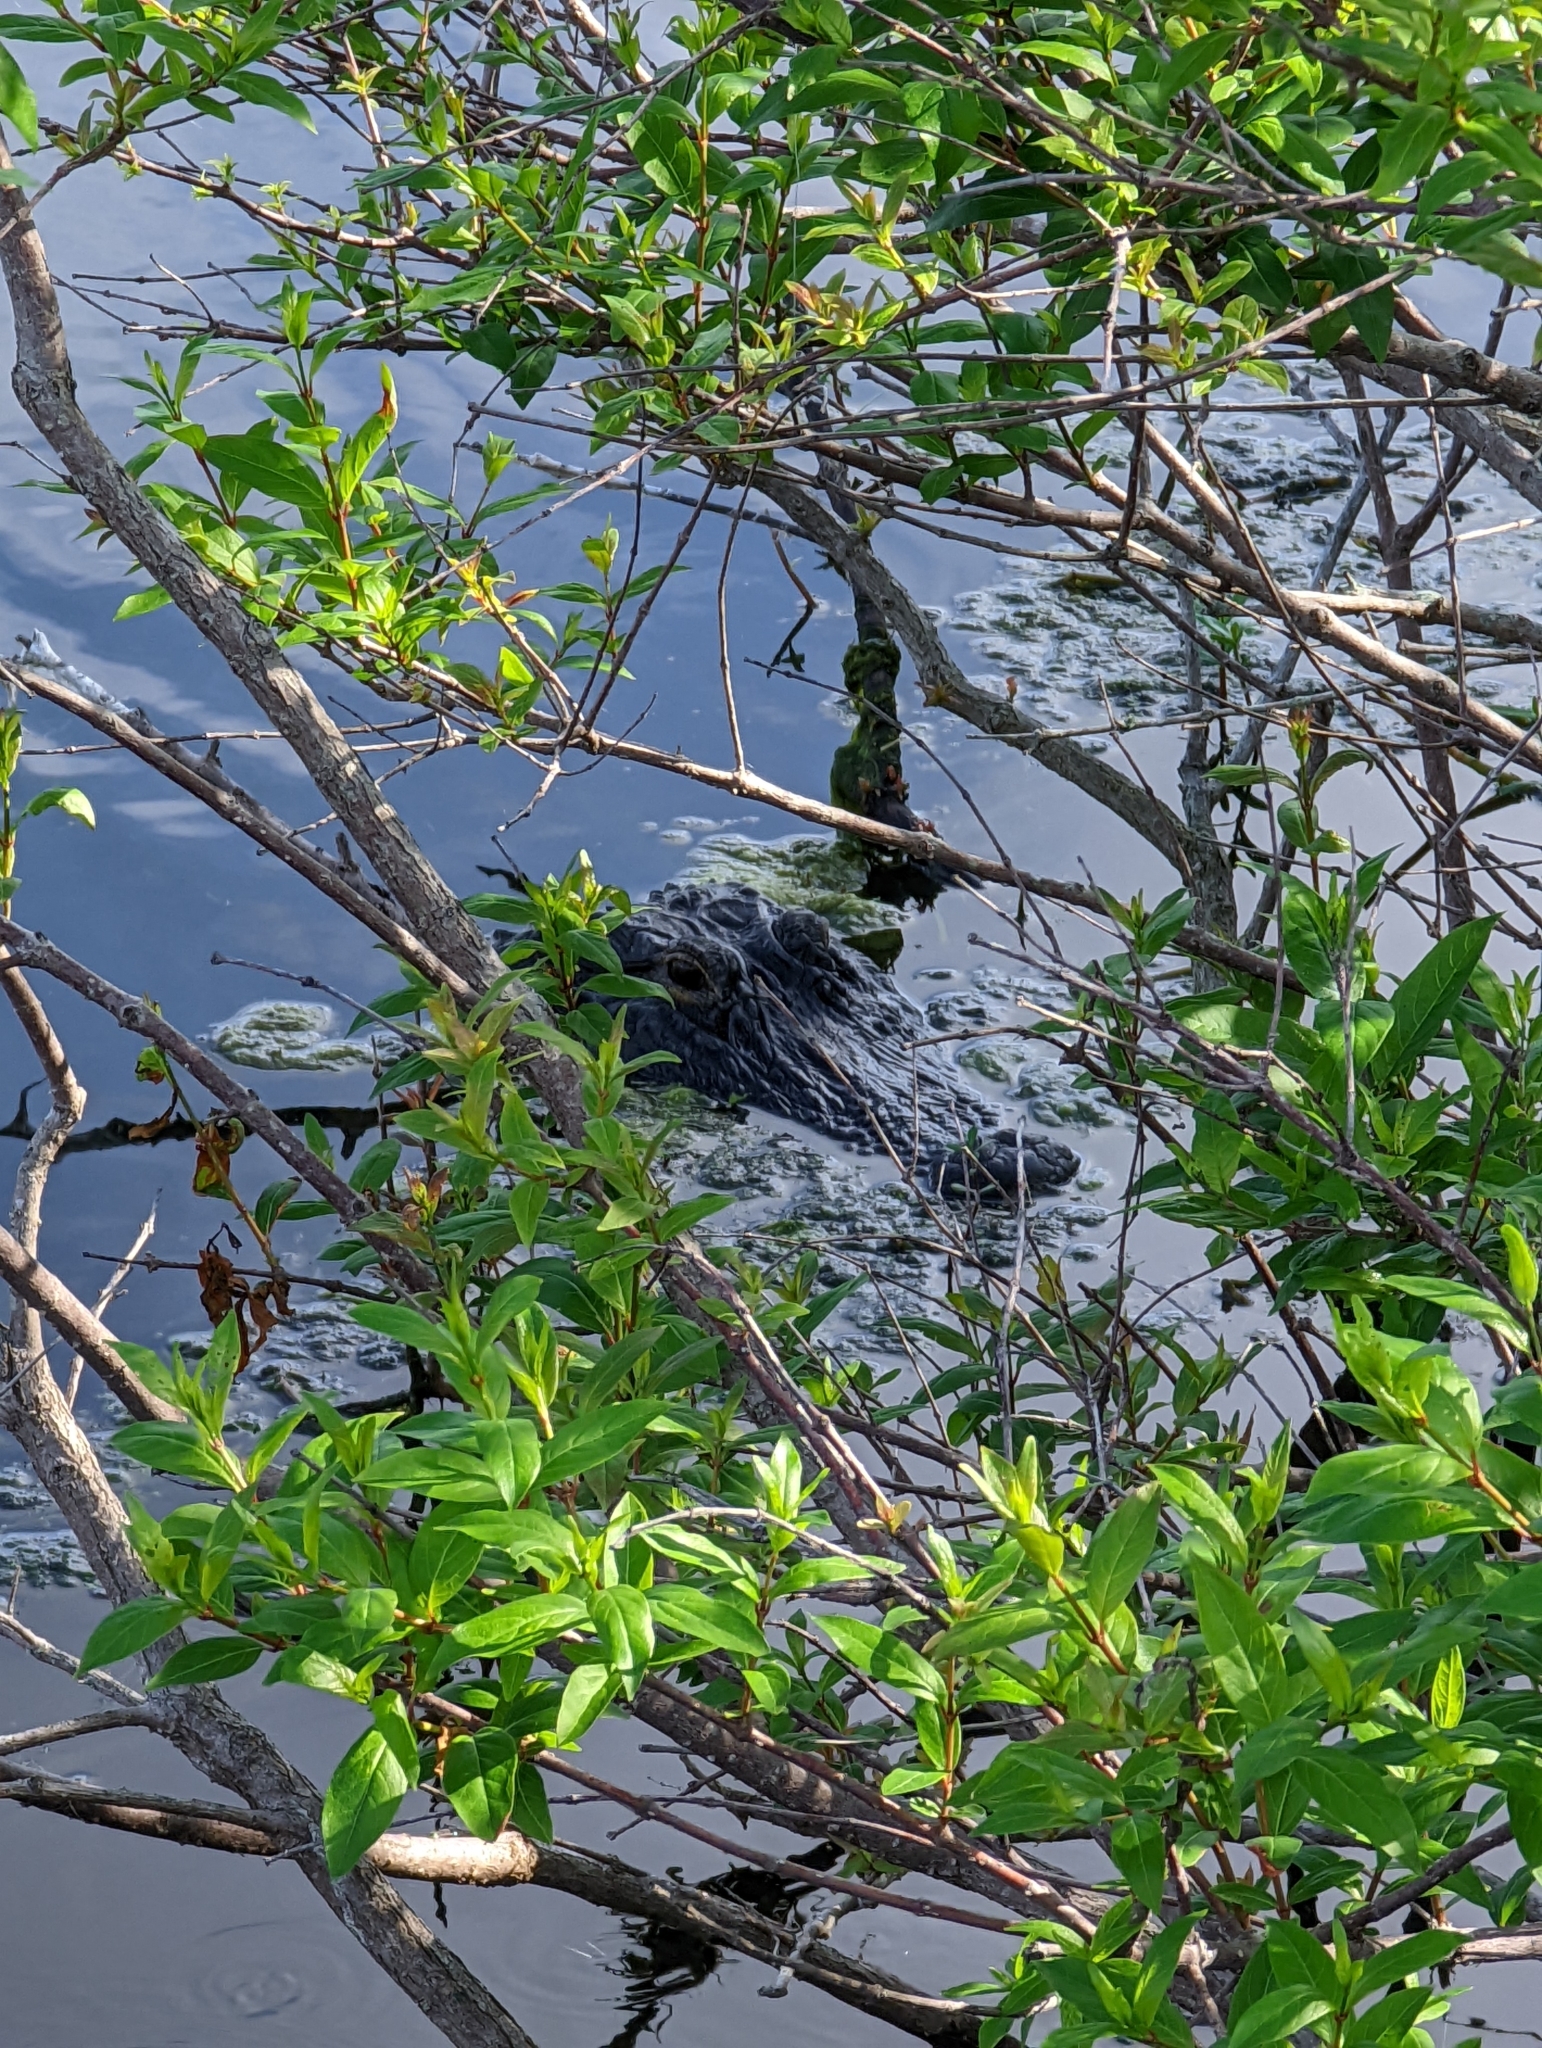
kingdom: Animalia
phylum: Chordata
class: Crocodylia
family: Alligatoridae
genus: Alligator
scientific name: Alligator mississippiensis
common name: American alligator
